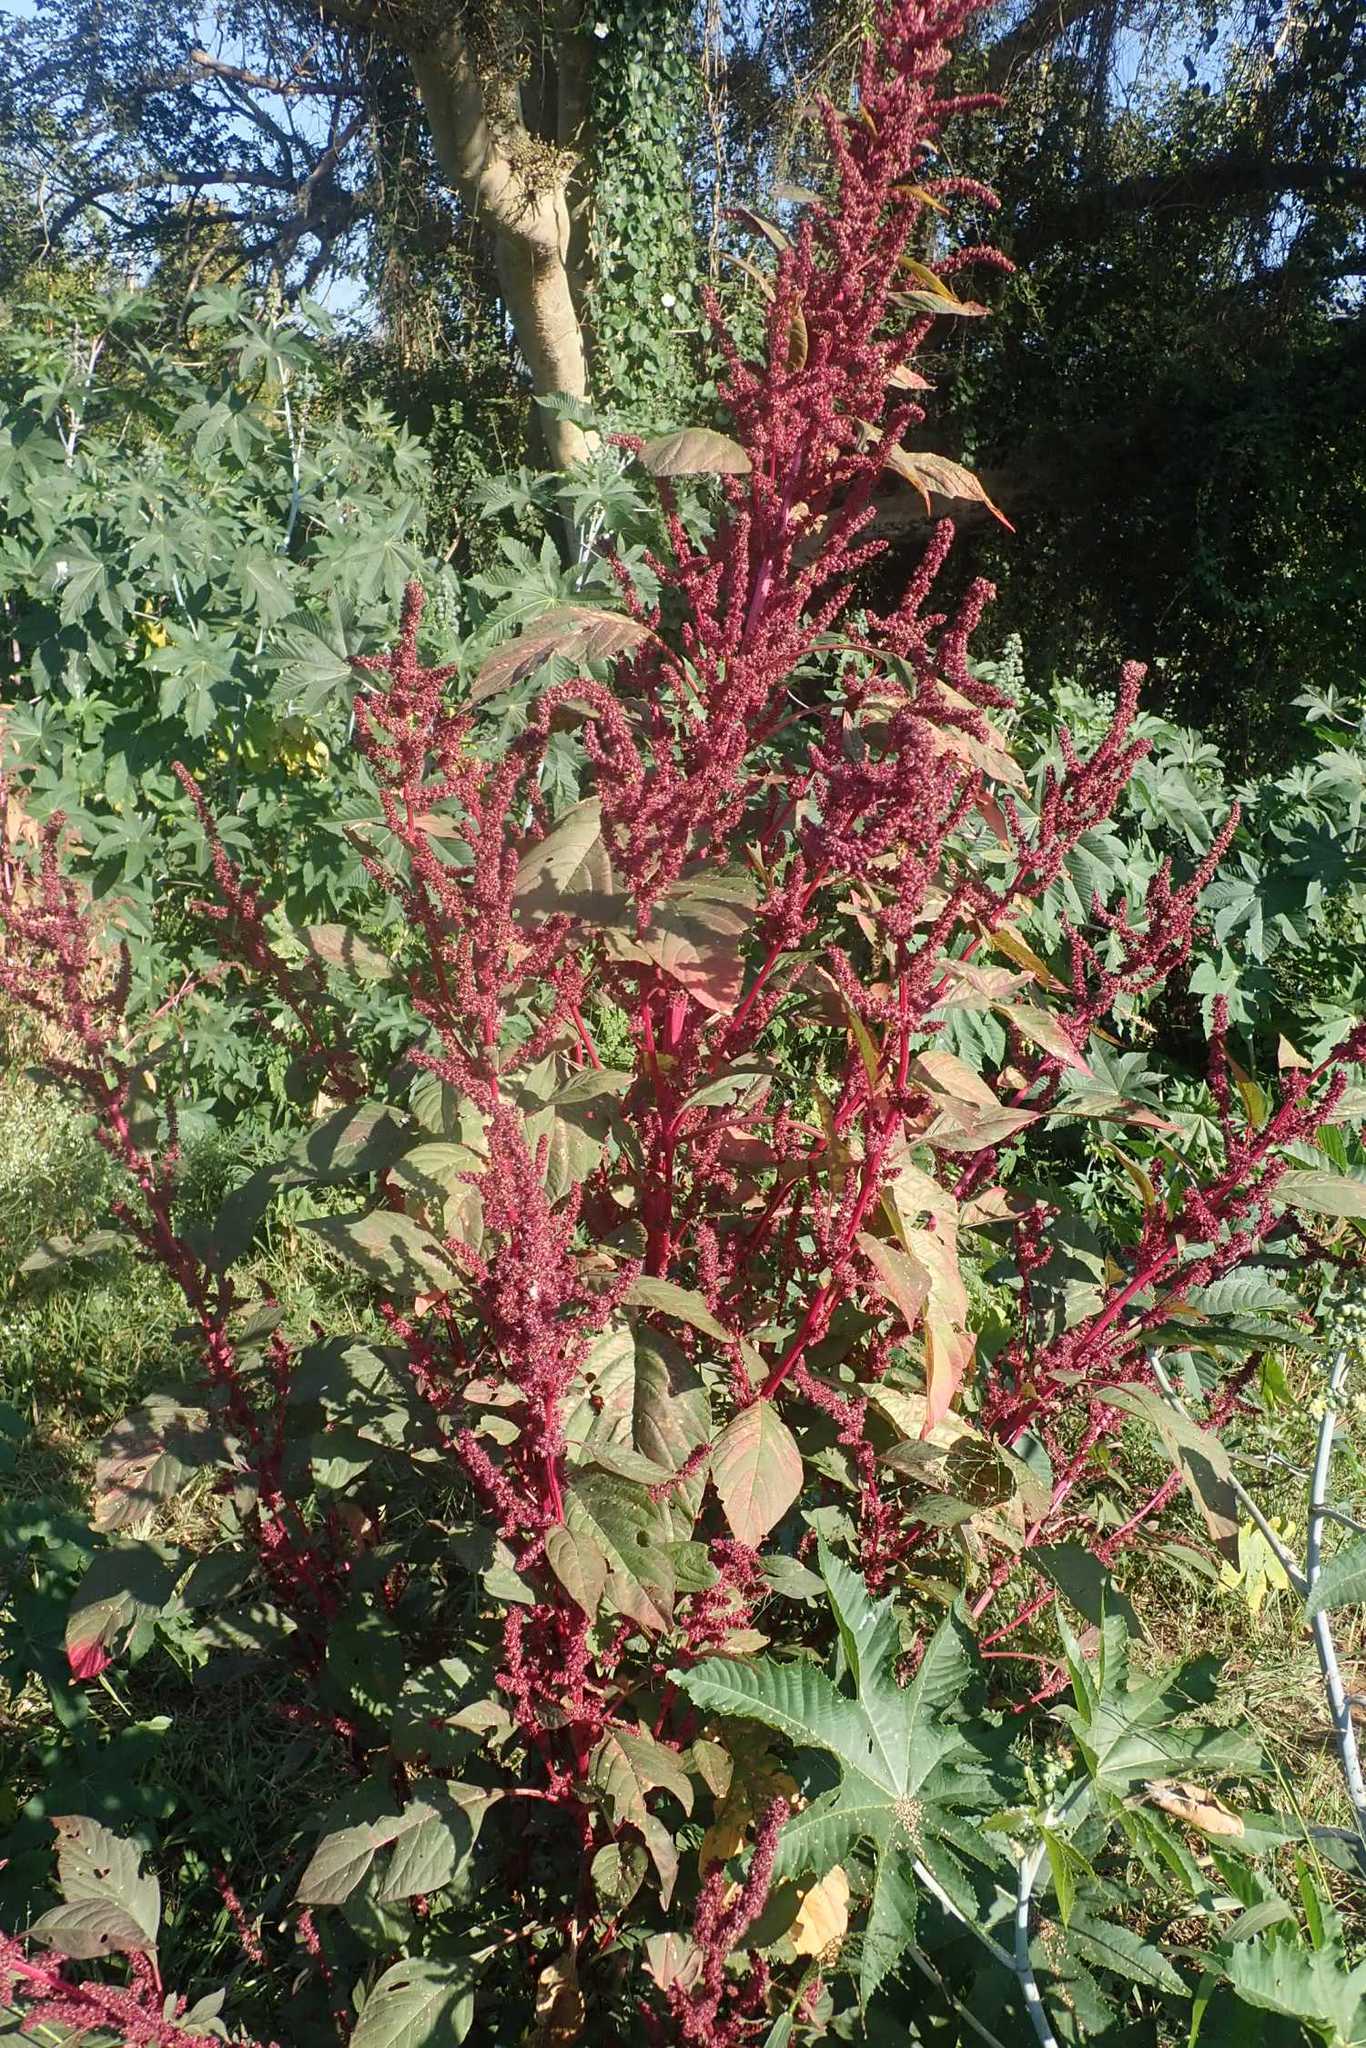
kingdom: Plantae
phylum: Tracheophyta
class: Magnoliopsida
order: Caryophyllales
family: Amaranthaceae
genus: Amaranthus
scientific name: Amaranthus hybridus
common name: Green amaranth
